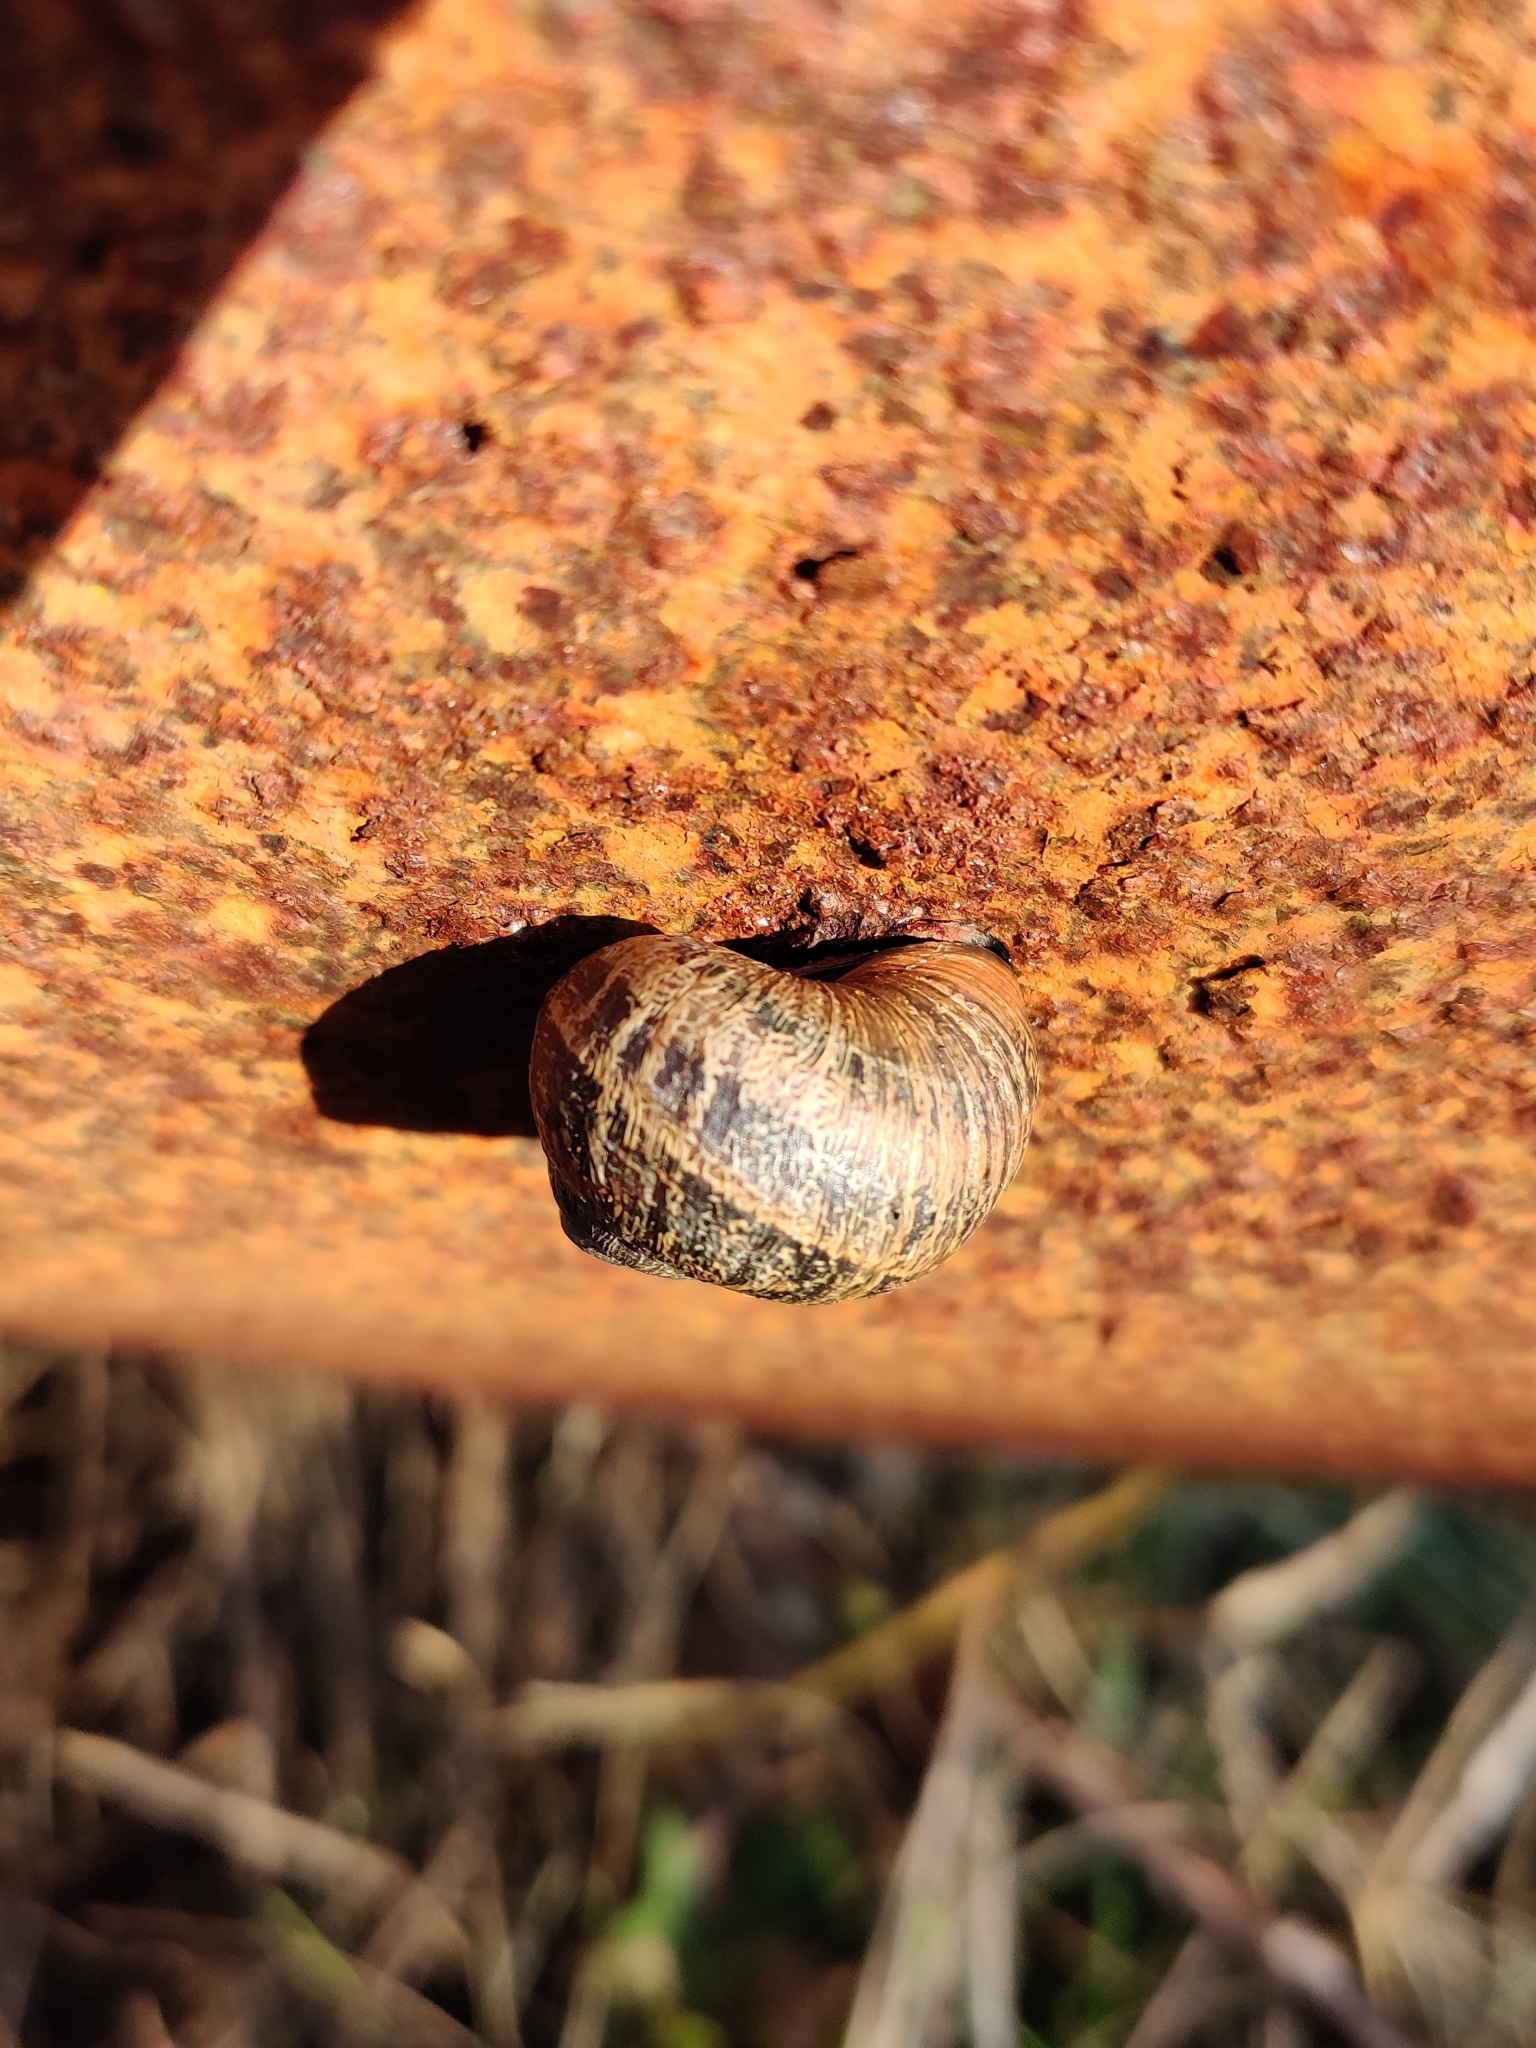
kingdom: Animalia
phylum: Mollusca
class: Gastropoda
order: Stylommatophora
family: Helicidae
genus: Cornu
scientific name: Cornu aspersum
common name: Brown garden snail
